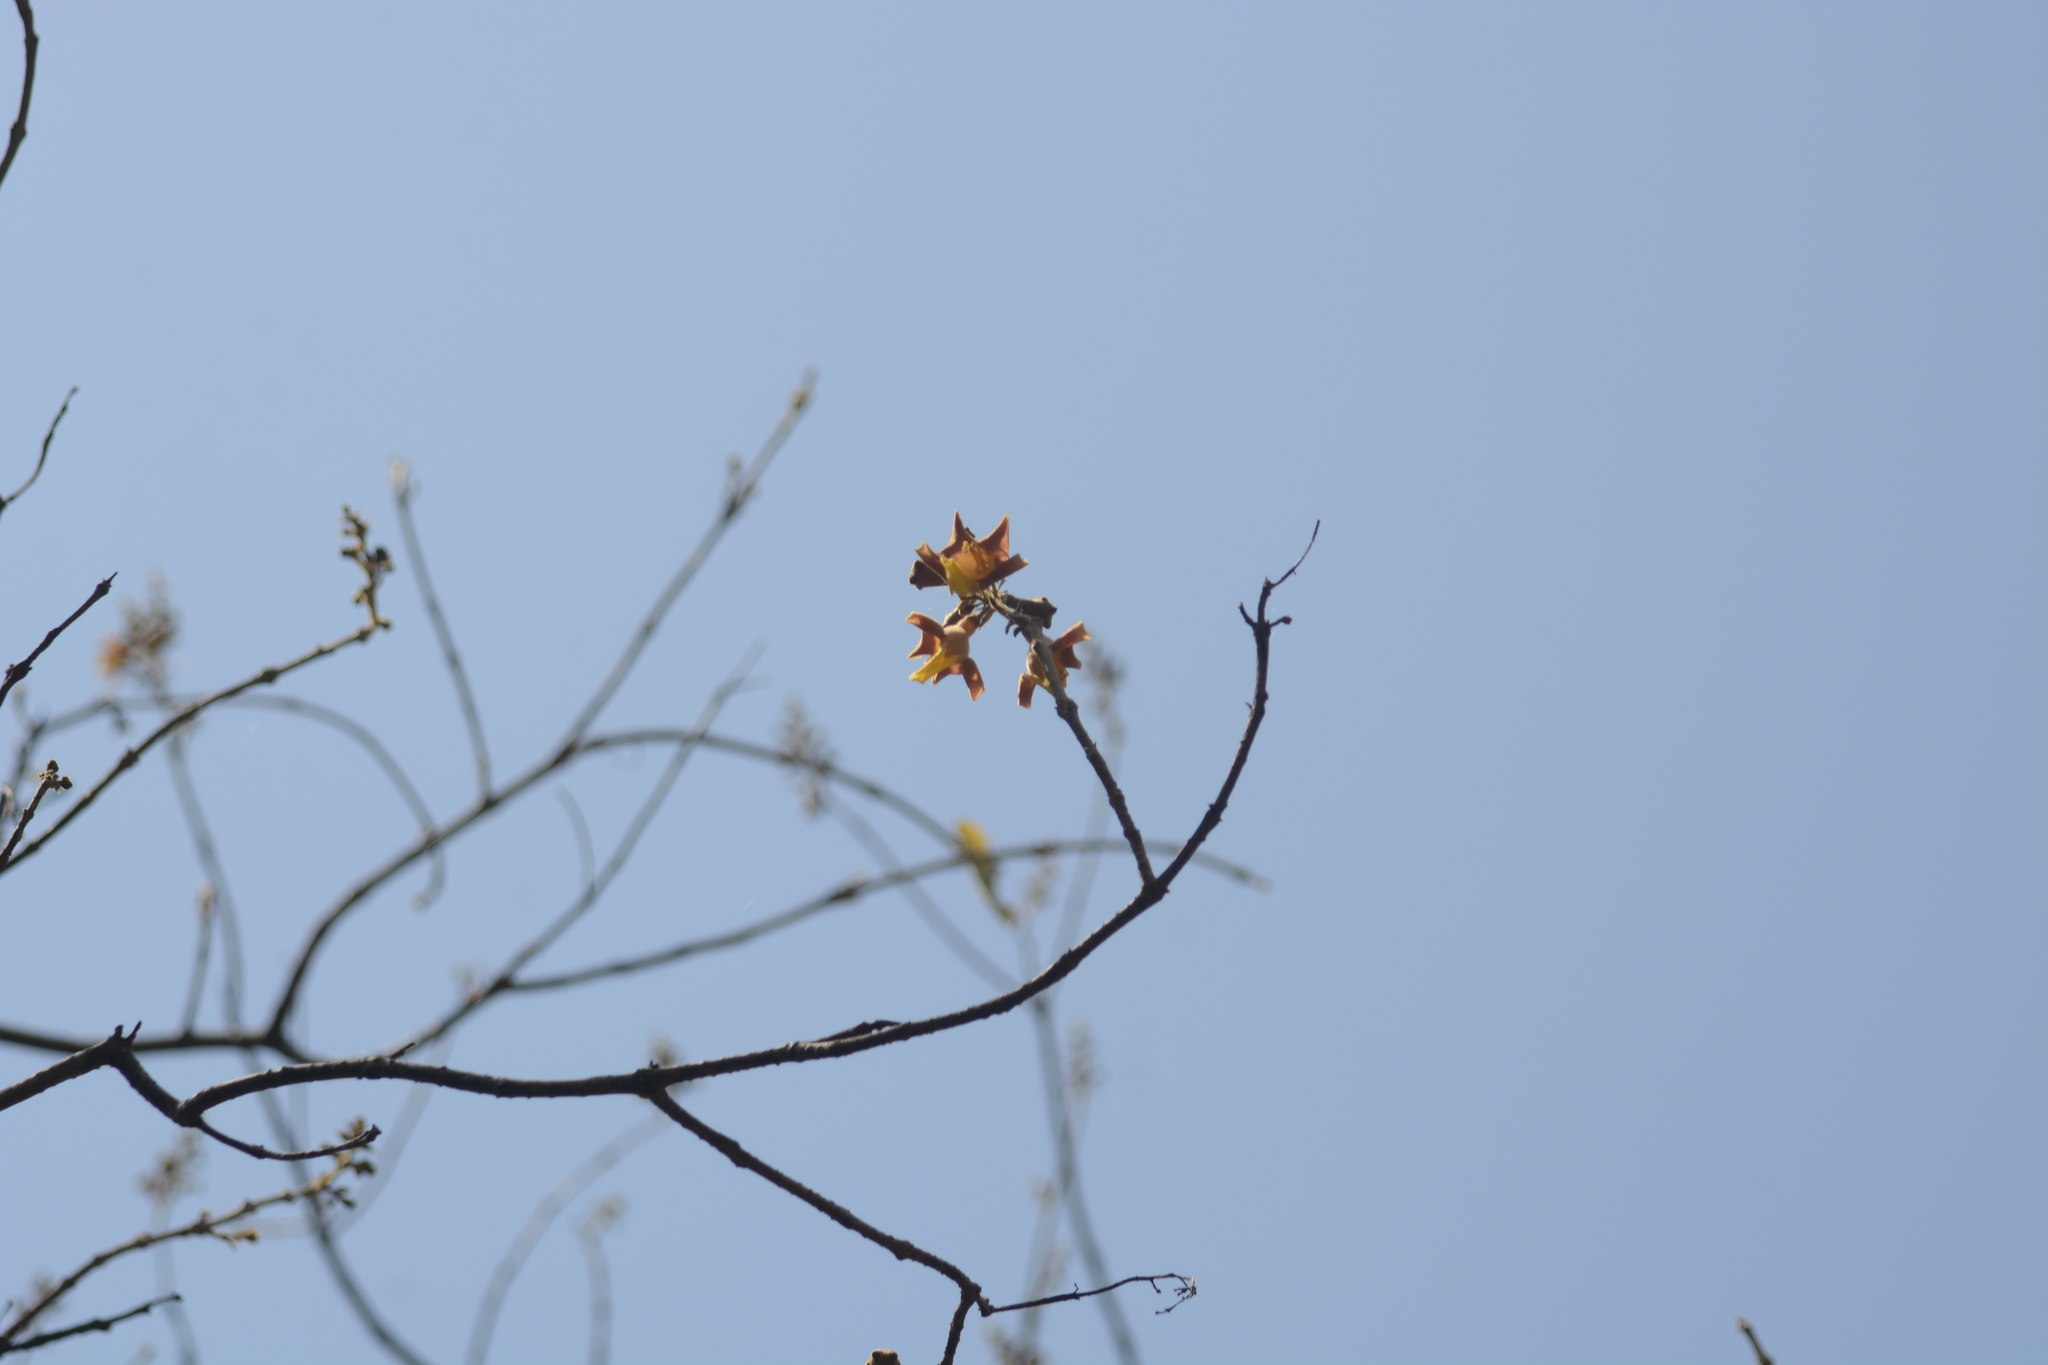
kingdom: Plantae
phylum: Tracheophyta
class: Magnoliopsida
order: Lamiales
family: Lamiaceae
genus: Gmelina
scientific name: Gmelina arborea
